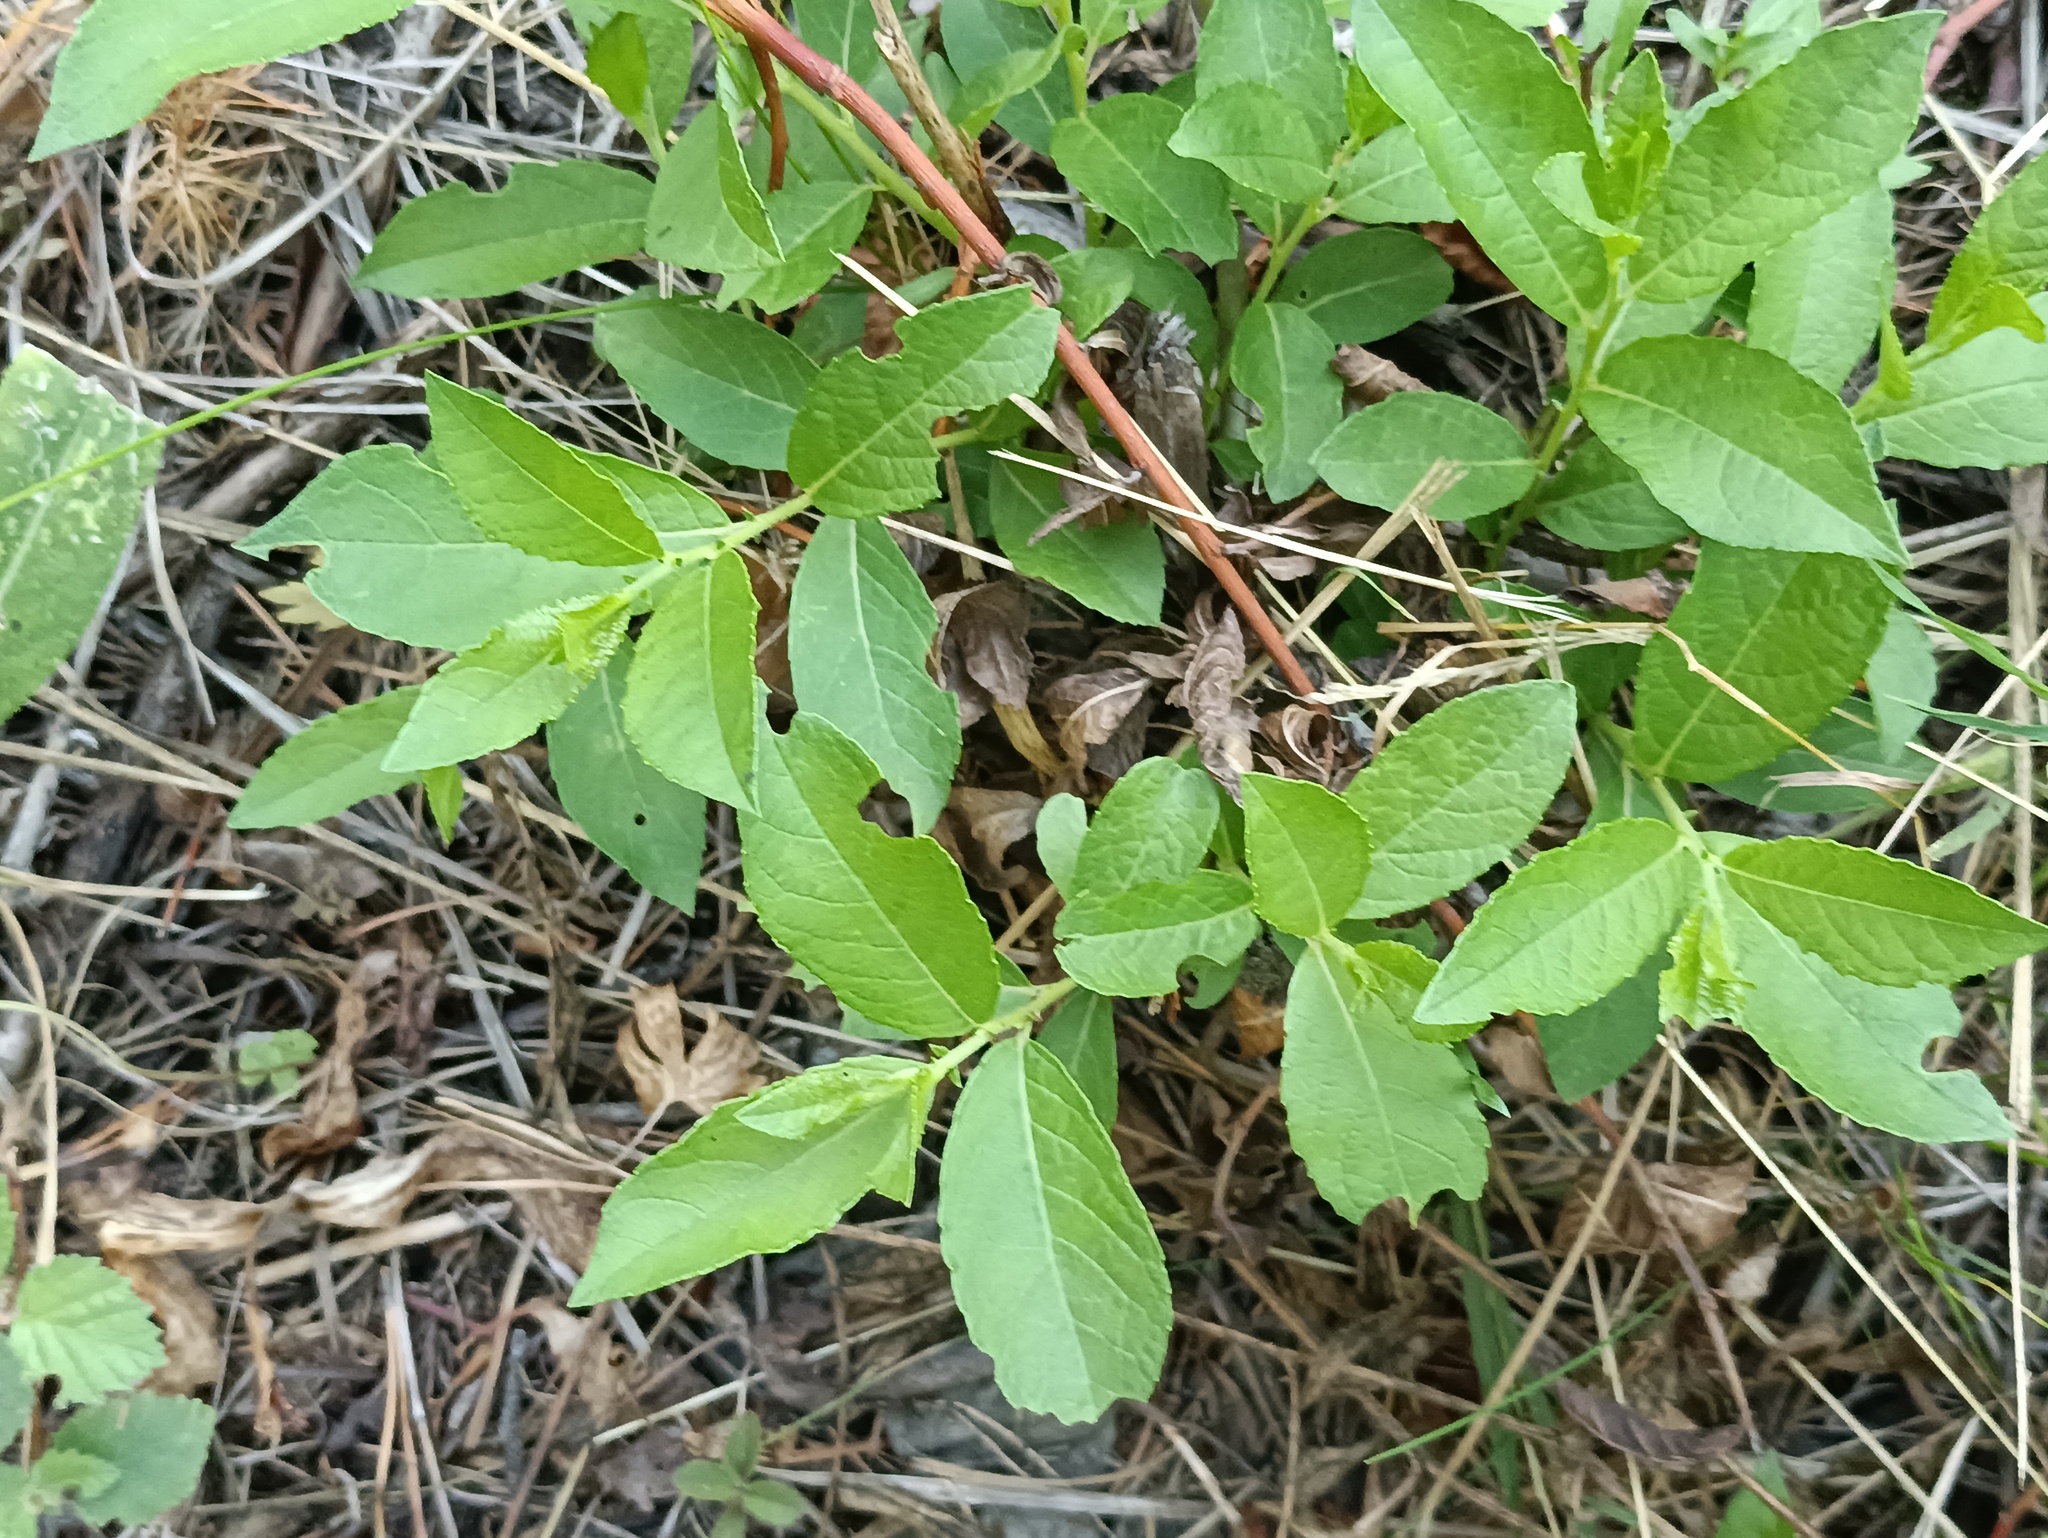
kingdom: Plantae
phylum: Tracheophyta
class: Magnoliopsida
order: Malpighiales
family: Salicaceae
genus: Salix
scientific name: Salix myrsinifolia
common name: Dark-leaved willow
